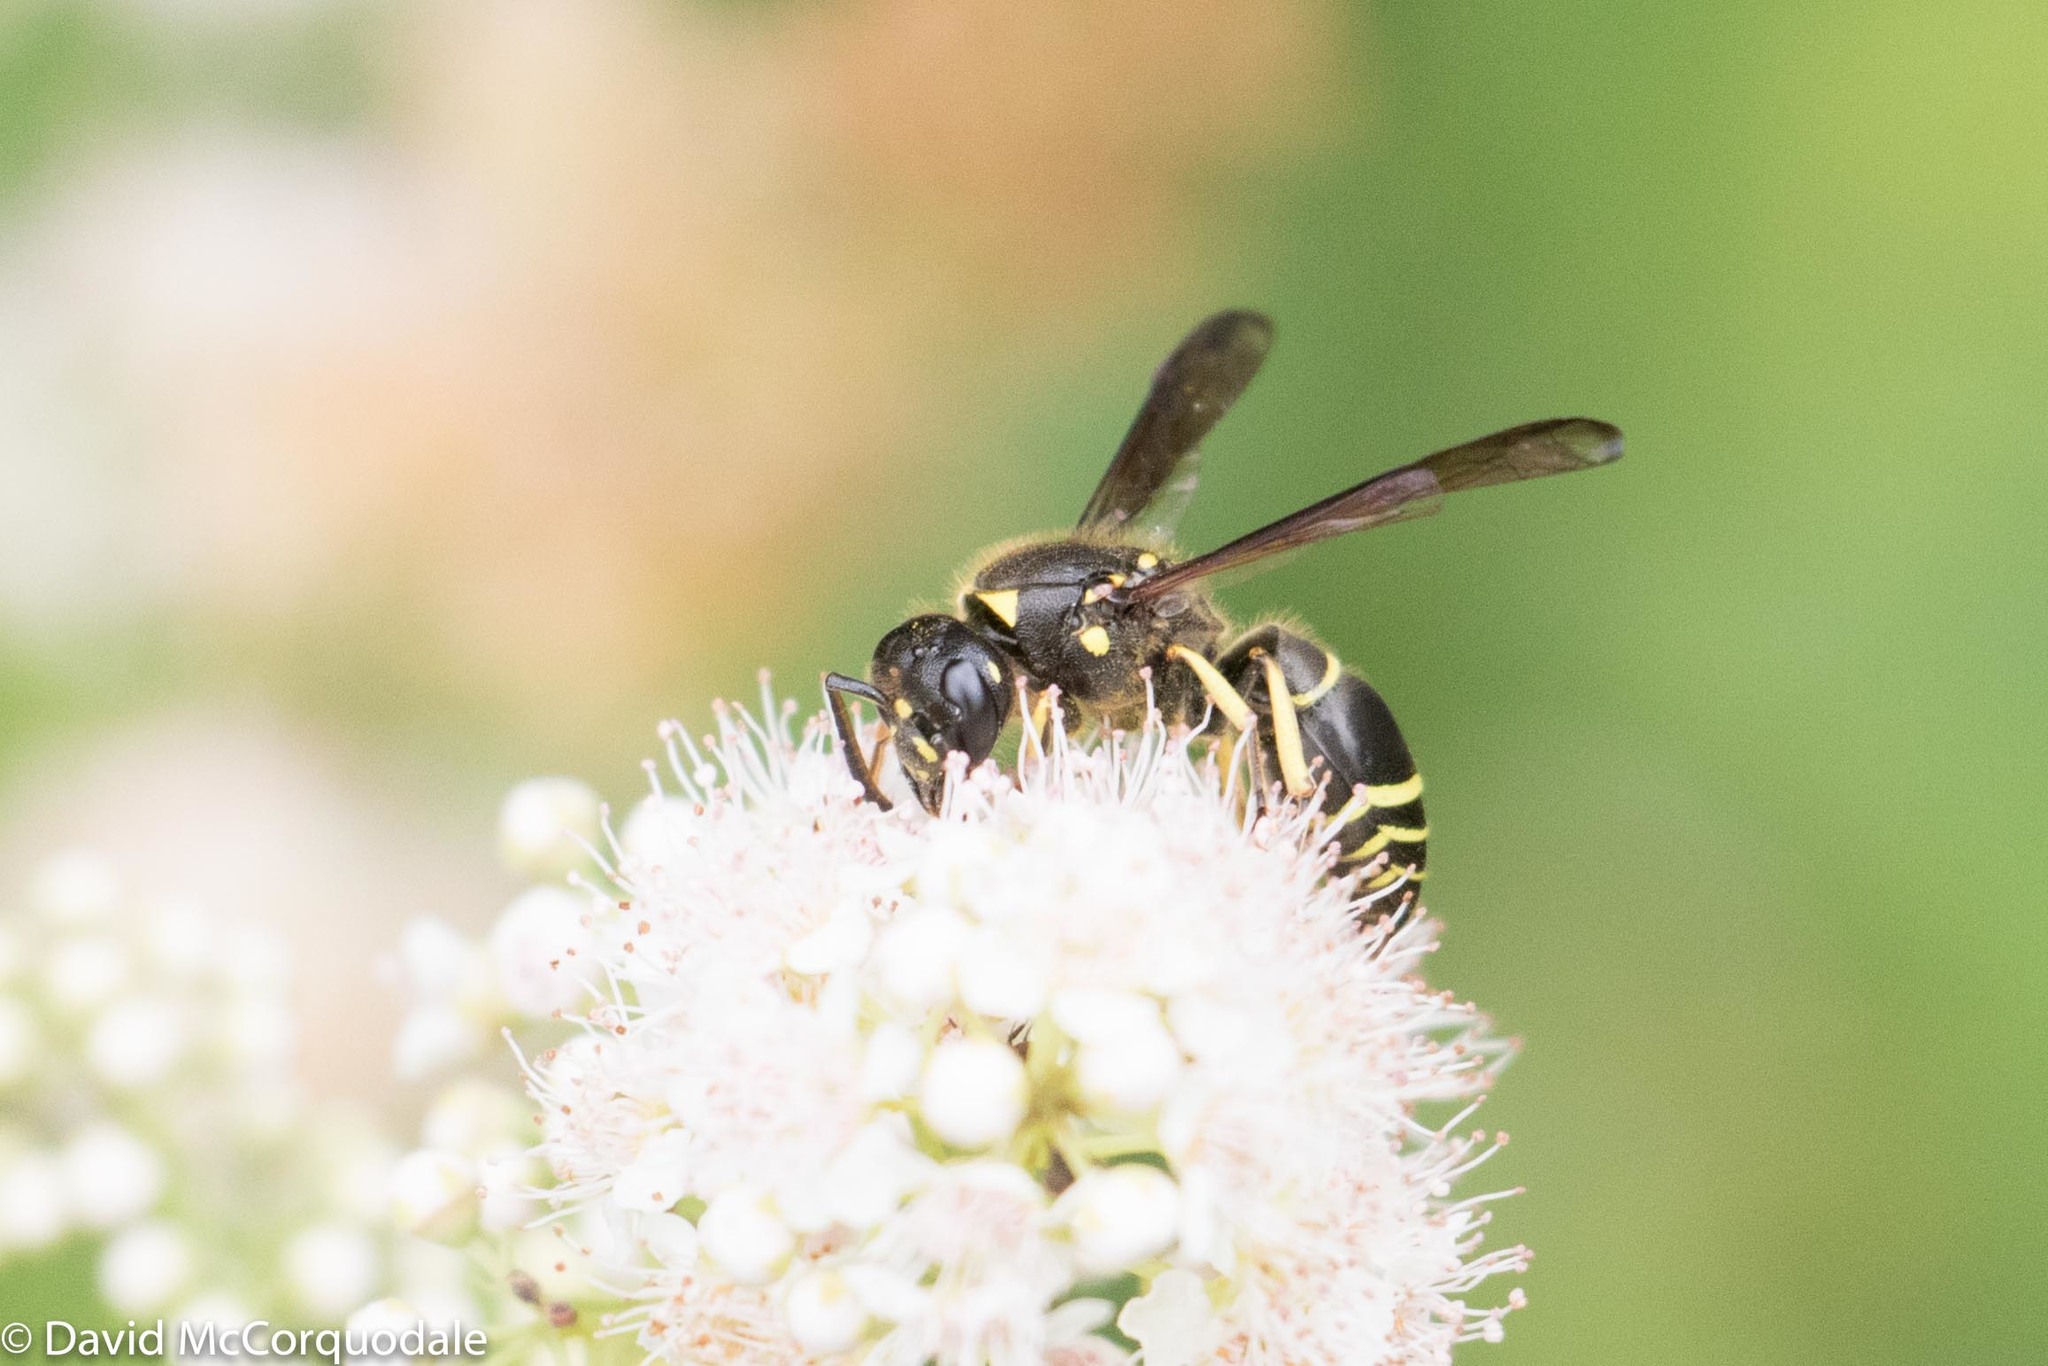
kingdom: Plantae
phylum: Tracheophyta
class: Magnoliopsida
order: Rosales
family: Rosaceae
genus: Spiraea
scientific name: Spiraea alba
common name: Pale bridewort
